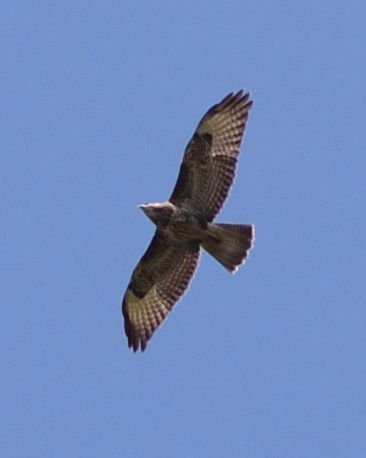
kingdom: Animalia
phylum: Chordata
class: Aves
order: Accipitriformes
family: Accipitridae
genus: Buteo
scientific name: Buteo buteo
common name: Common buzzard
